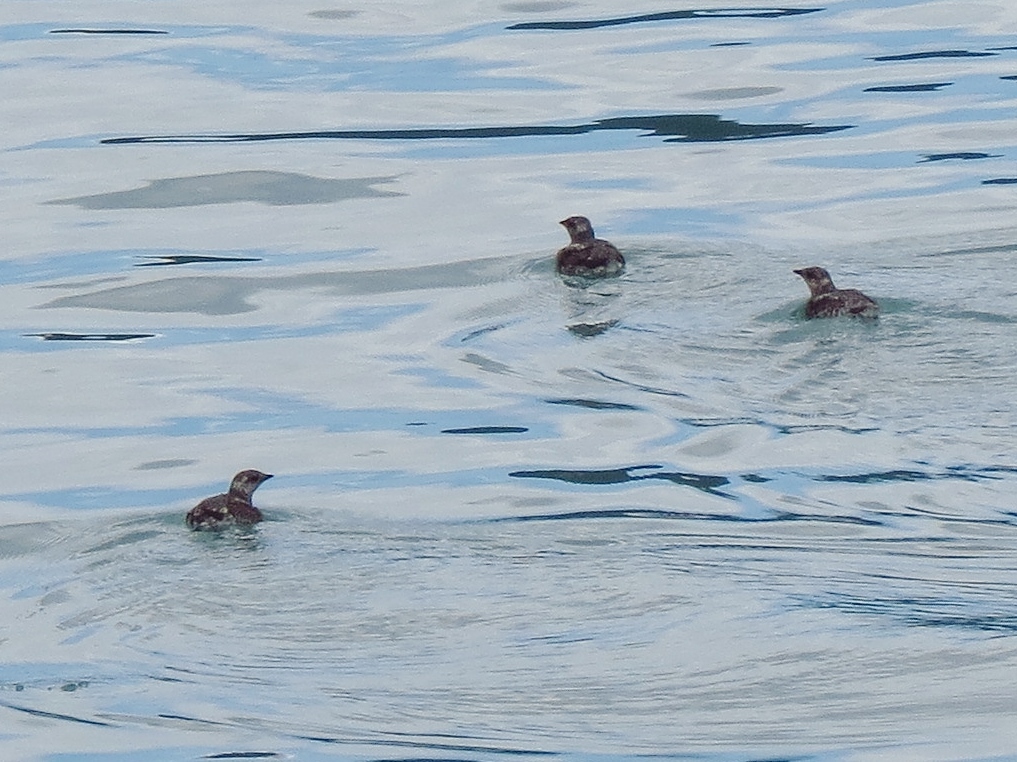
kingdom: Animalia
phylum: Chordata
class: Aves
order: Charadriiformes
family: Alcidae
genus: Brachyramphus
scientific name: Brachyramphus marmoratus
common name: Marbled murrelet
